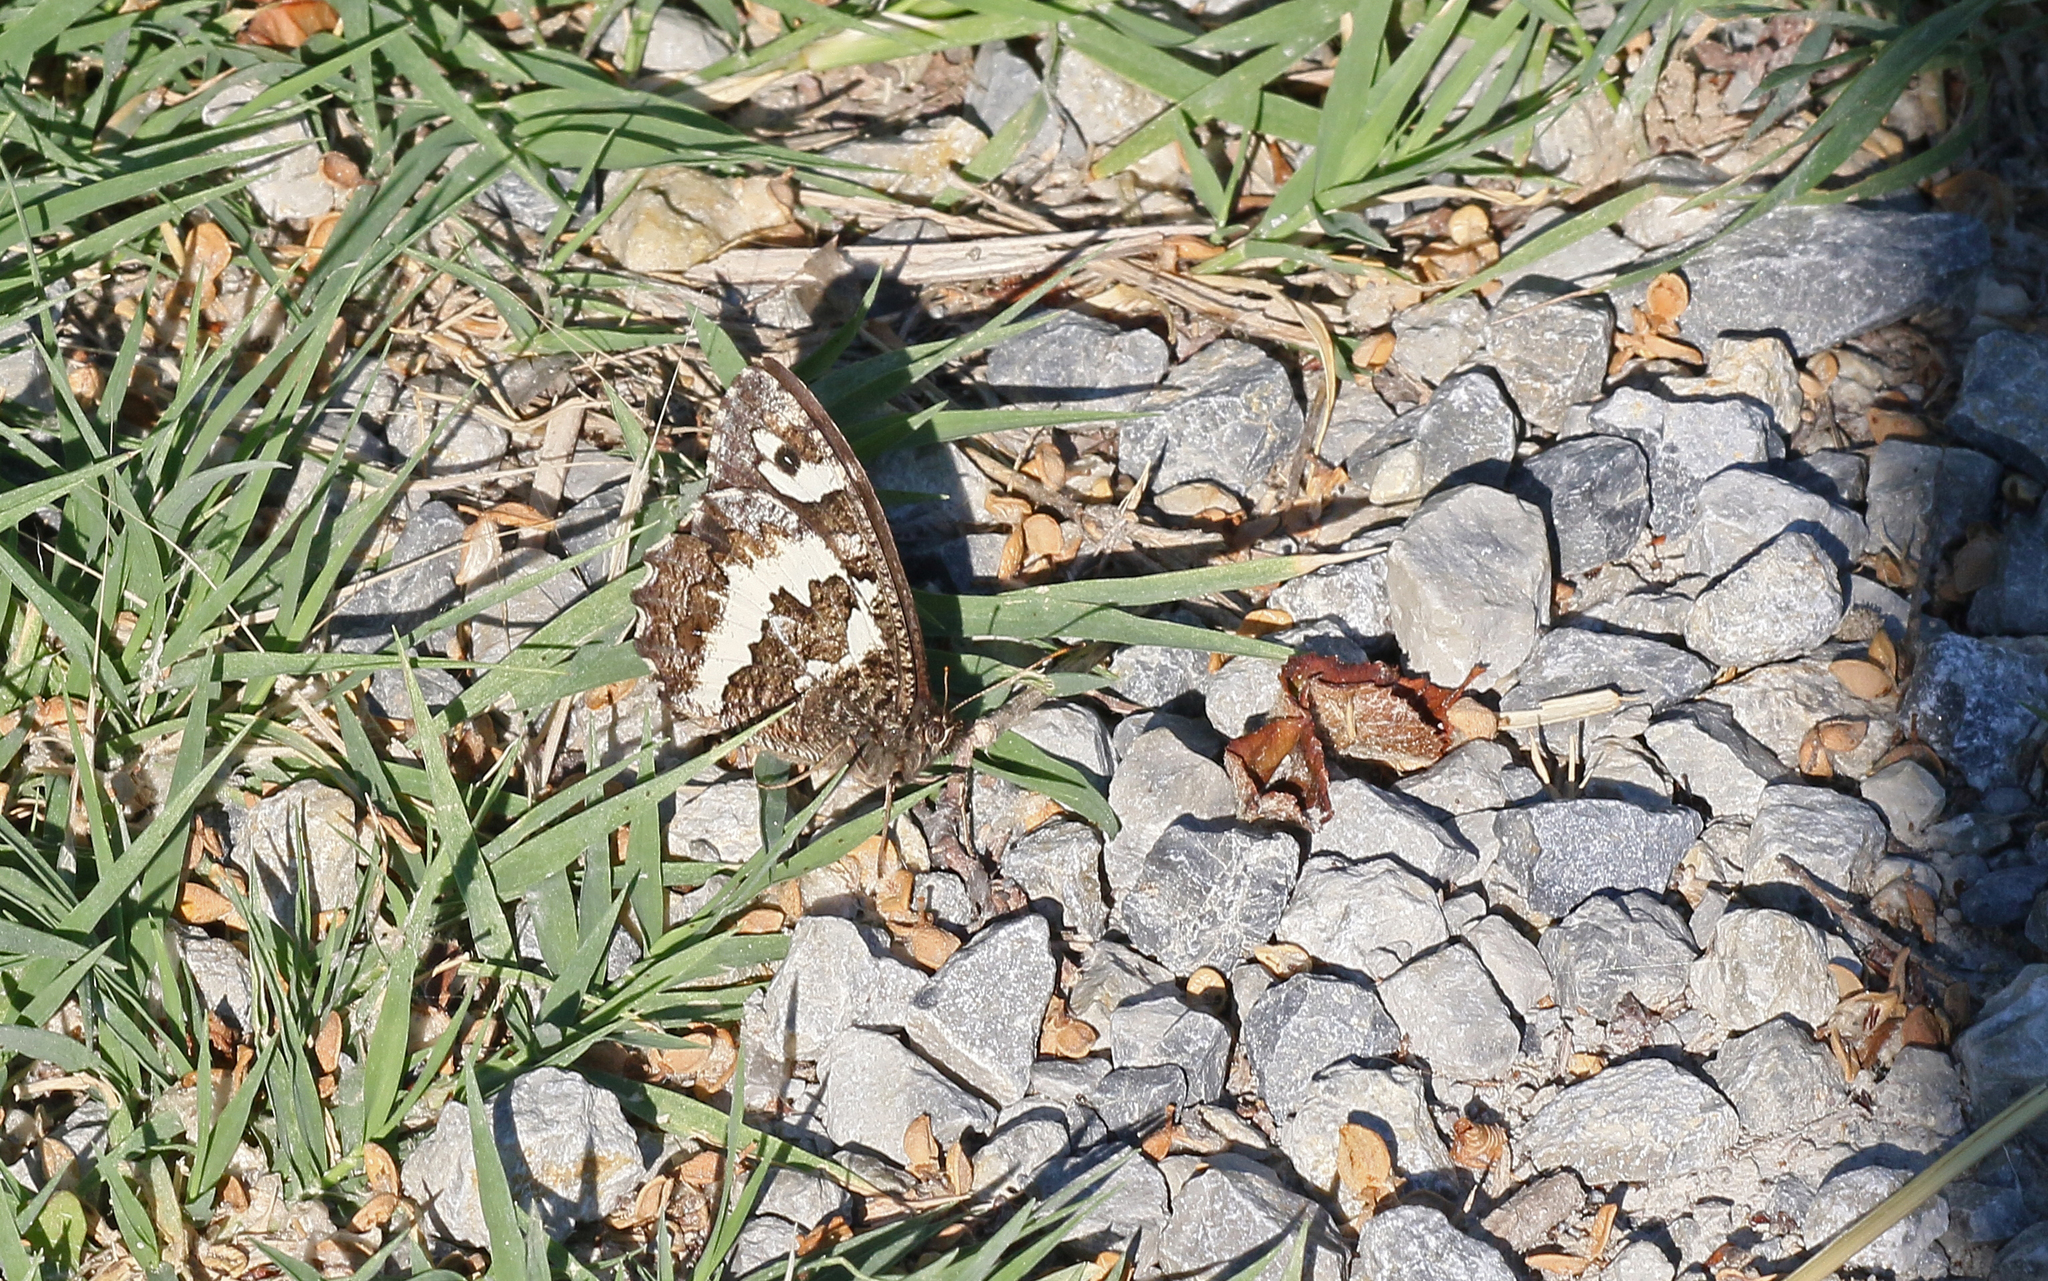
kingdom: Animalia
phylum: Arthropoda
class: Insecta
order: Lepidoptera
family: Lycaenidae
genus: Loweia
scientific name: Loweia tityrus
